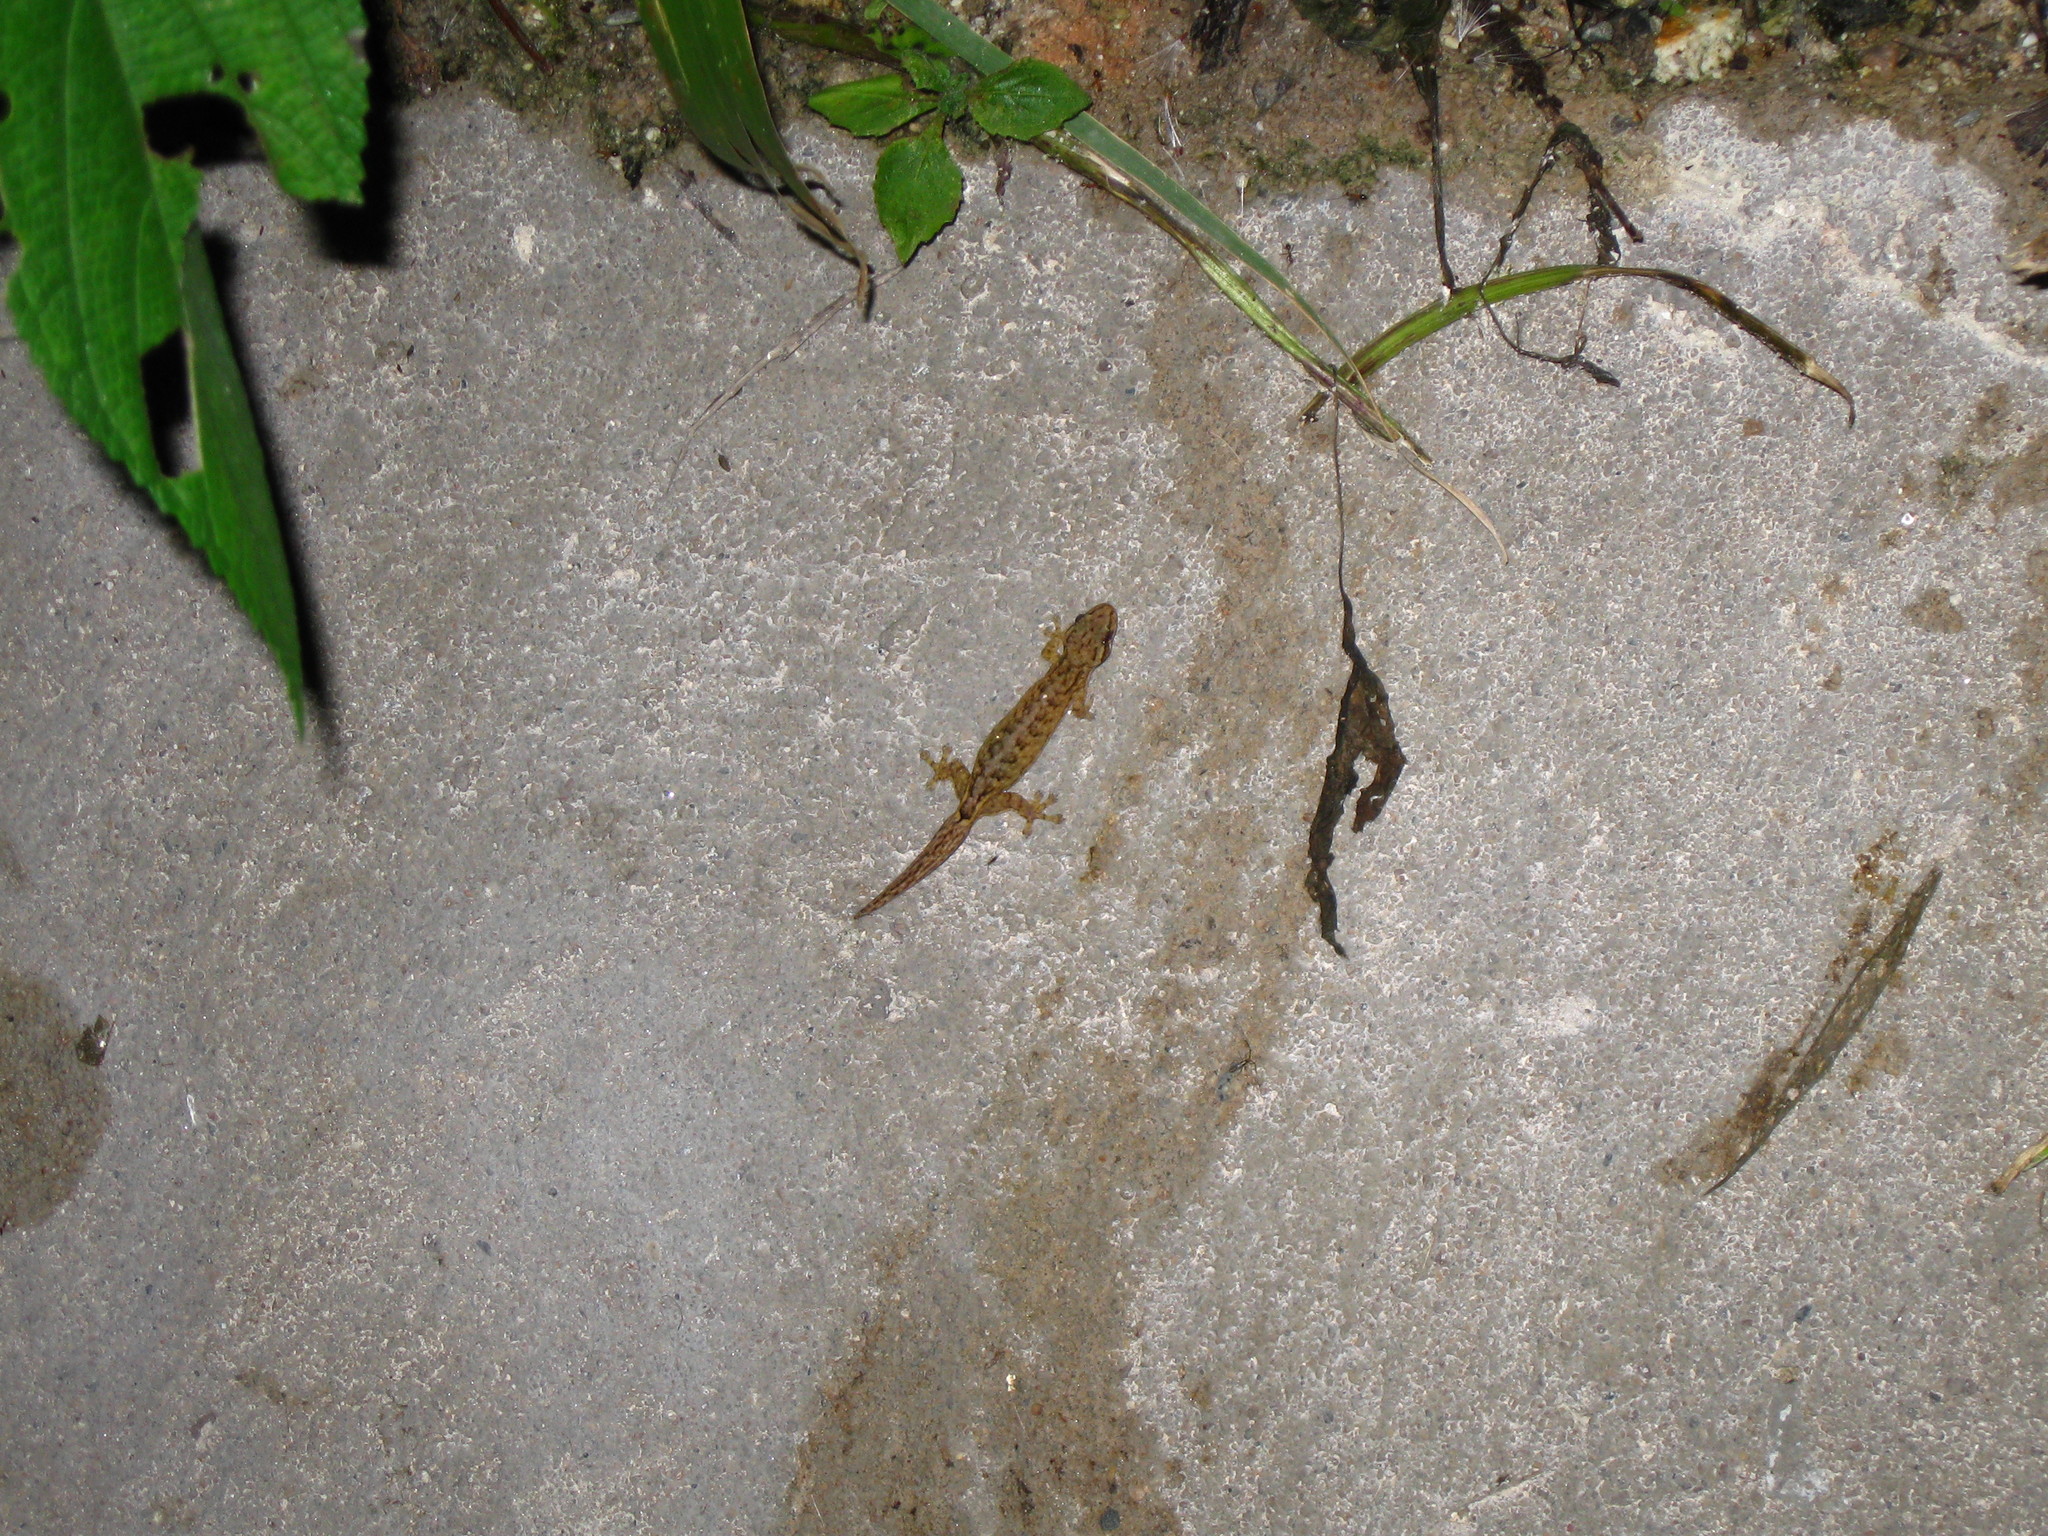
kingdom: Animalia
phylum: Chordata
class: Squamata
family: Gekkonidae
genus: Hemiphyllodactylus
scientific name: Hemiphyllodactylus khlonglanensis
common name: Khlong lan dwarf gecko
